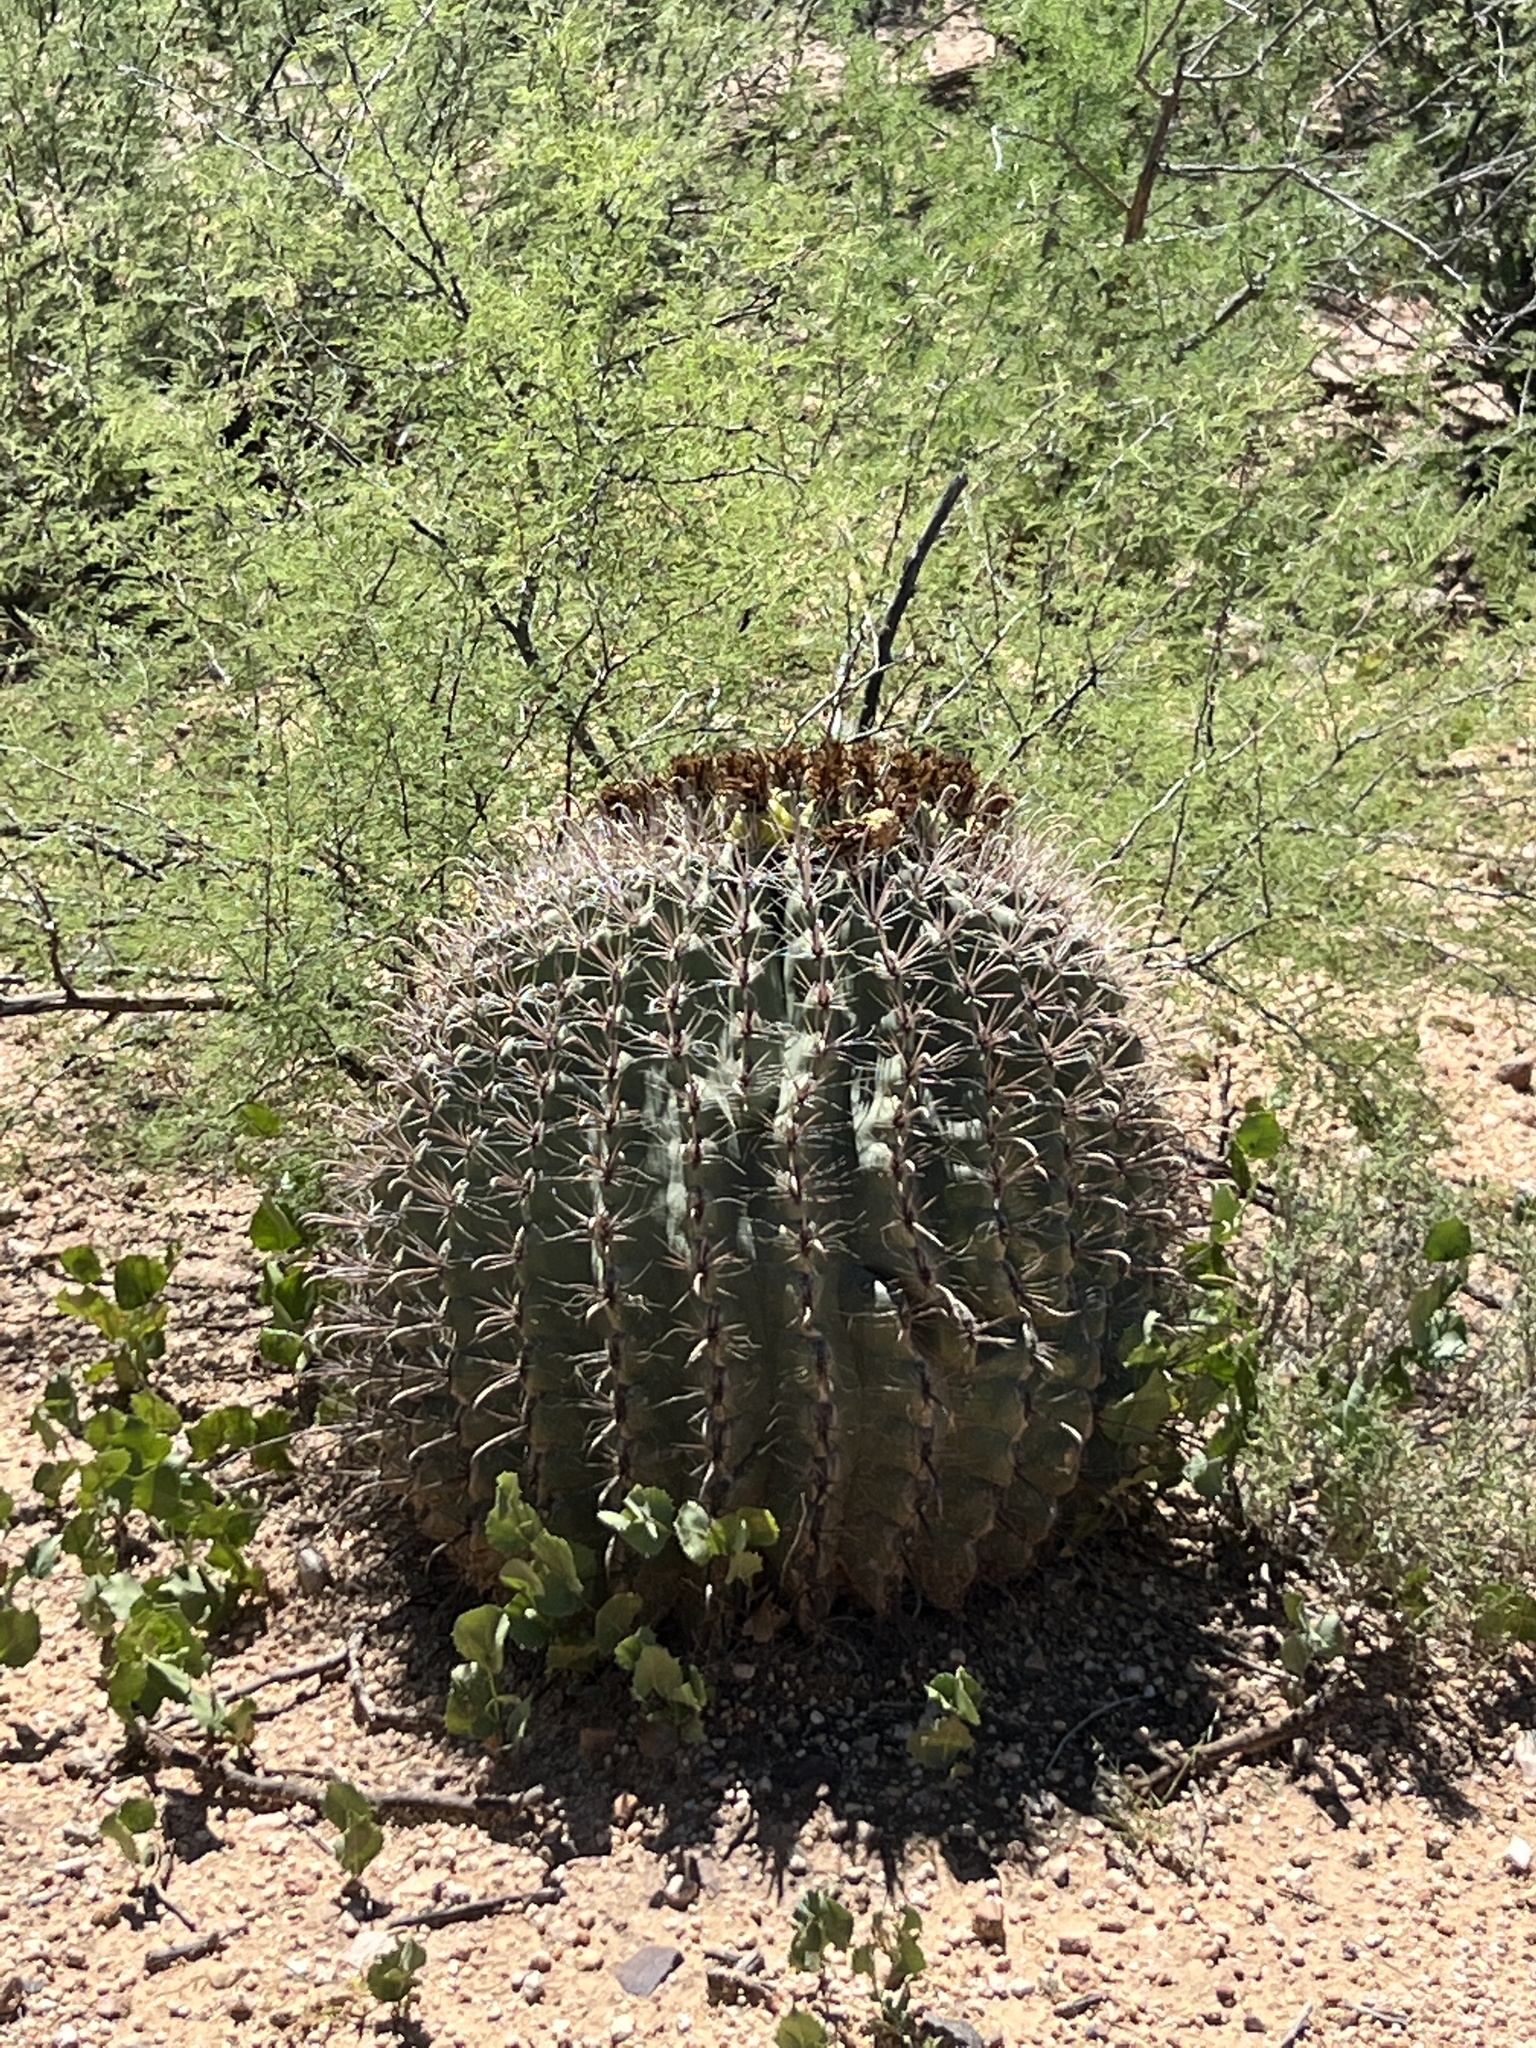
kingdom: Plantae
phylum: Tracheophyta
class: Magnoliopsida
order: Caryophyllales
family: Cactaceae
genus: Ferocactus
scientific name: Ferocactus wislizeni
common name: Candy barrel cactus
